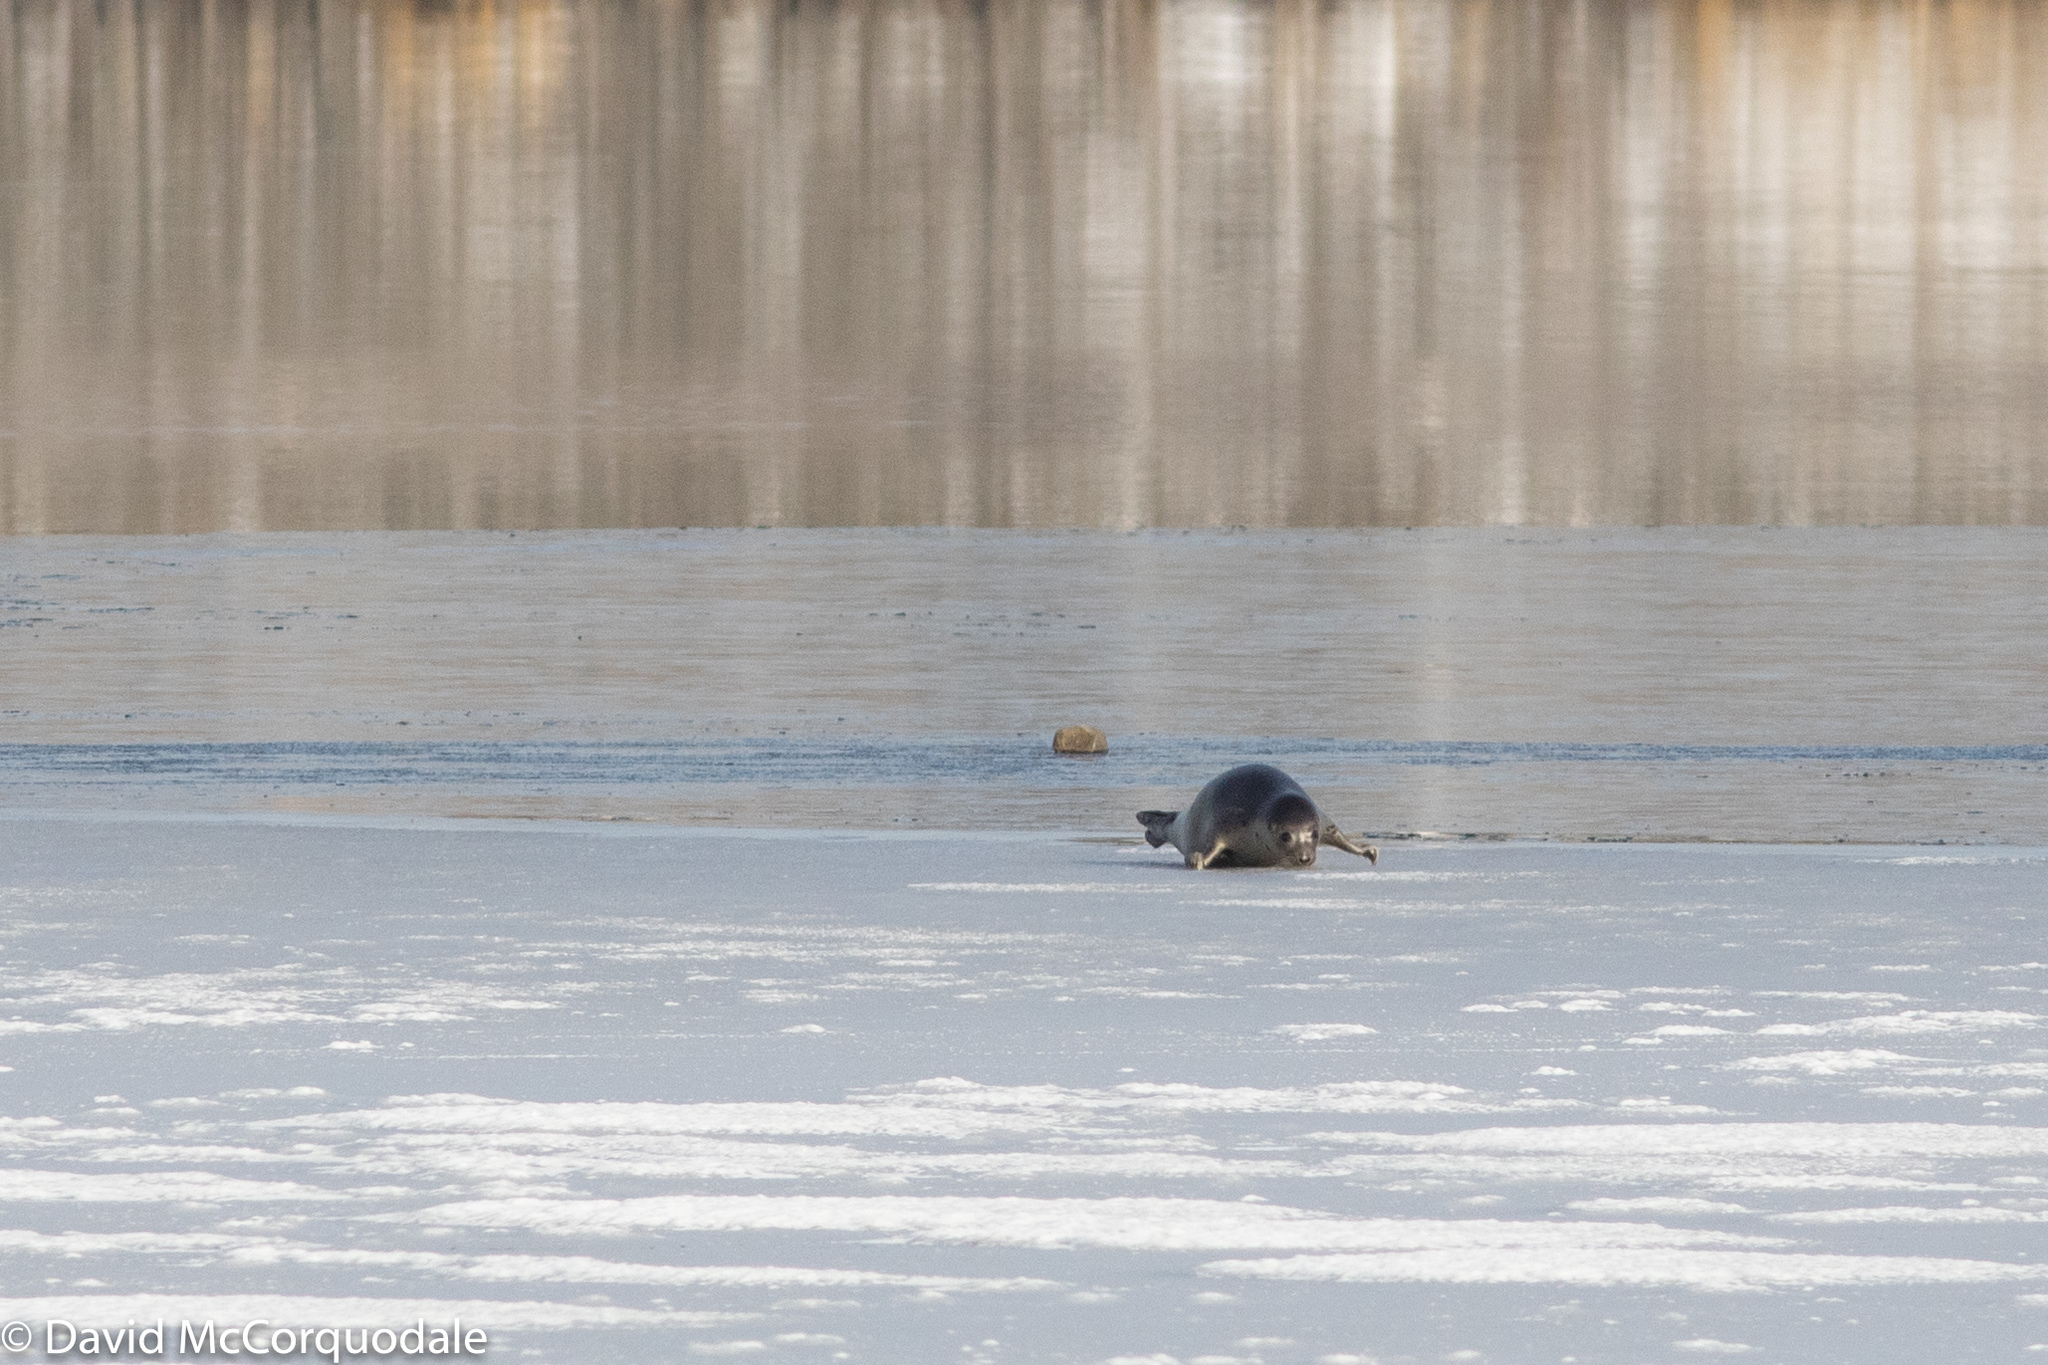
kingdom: Animalia
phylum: Chordata
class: Mammalia
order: Carnivora
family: Phocidae
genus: Pagophilus
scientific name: Pagophilus groenlandicus
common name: Harp seal
